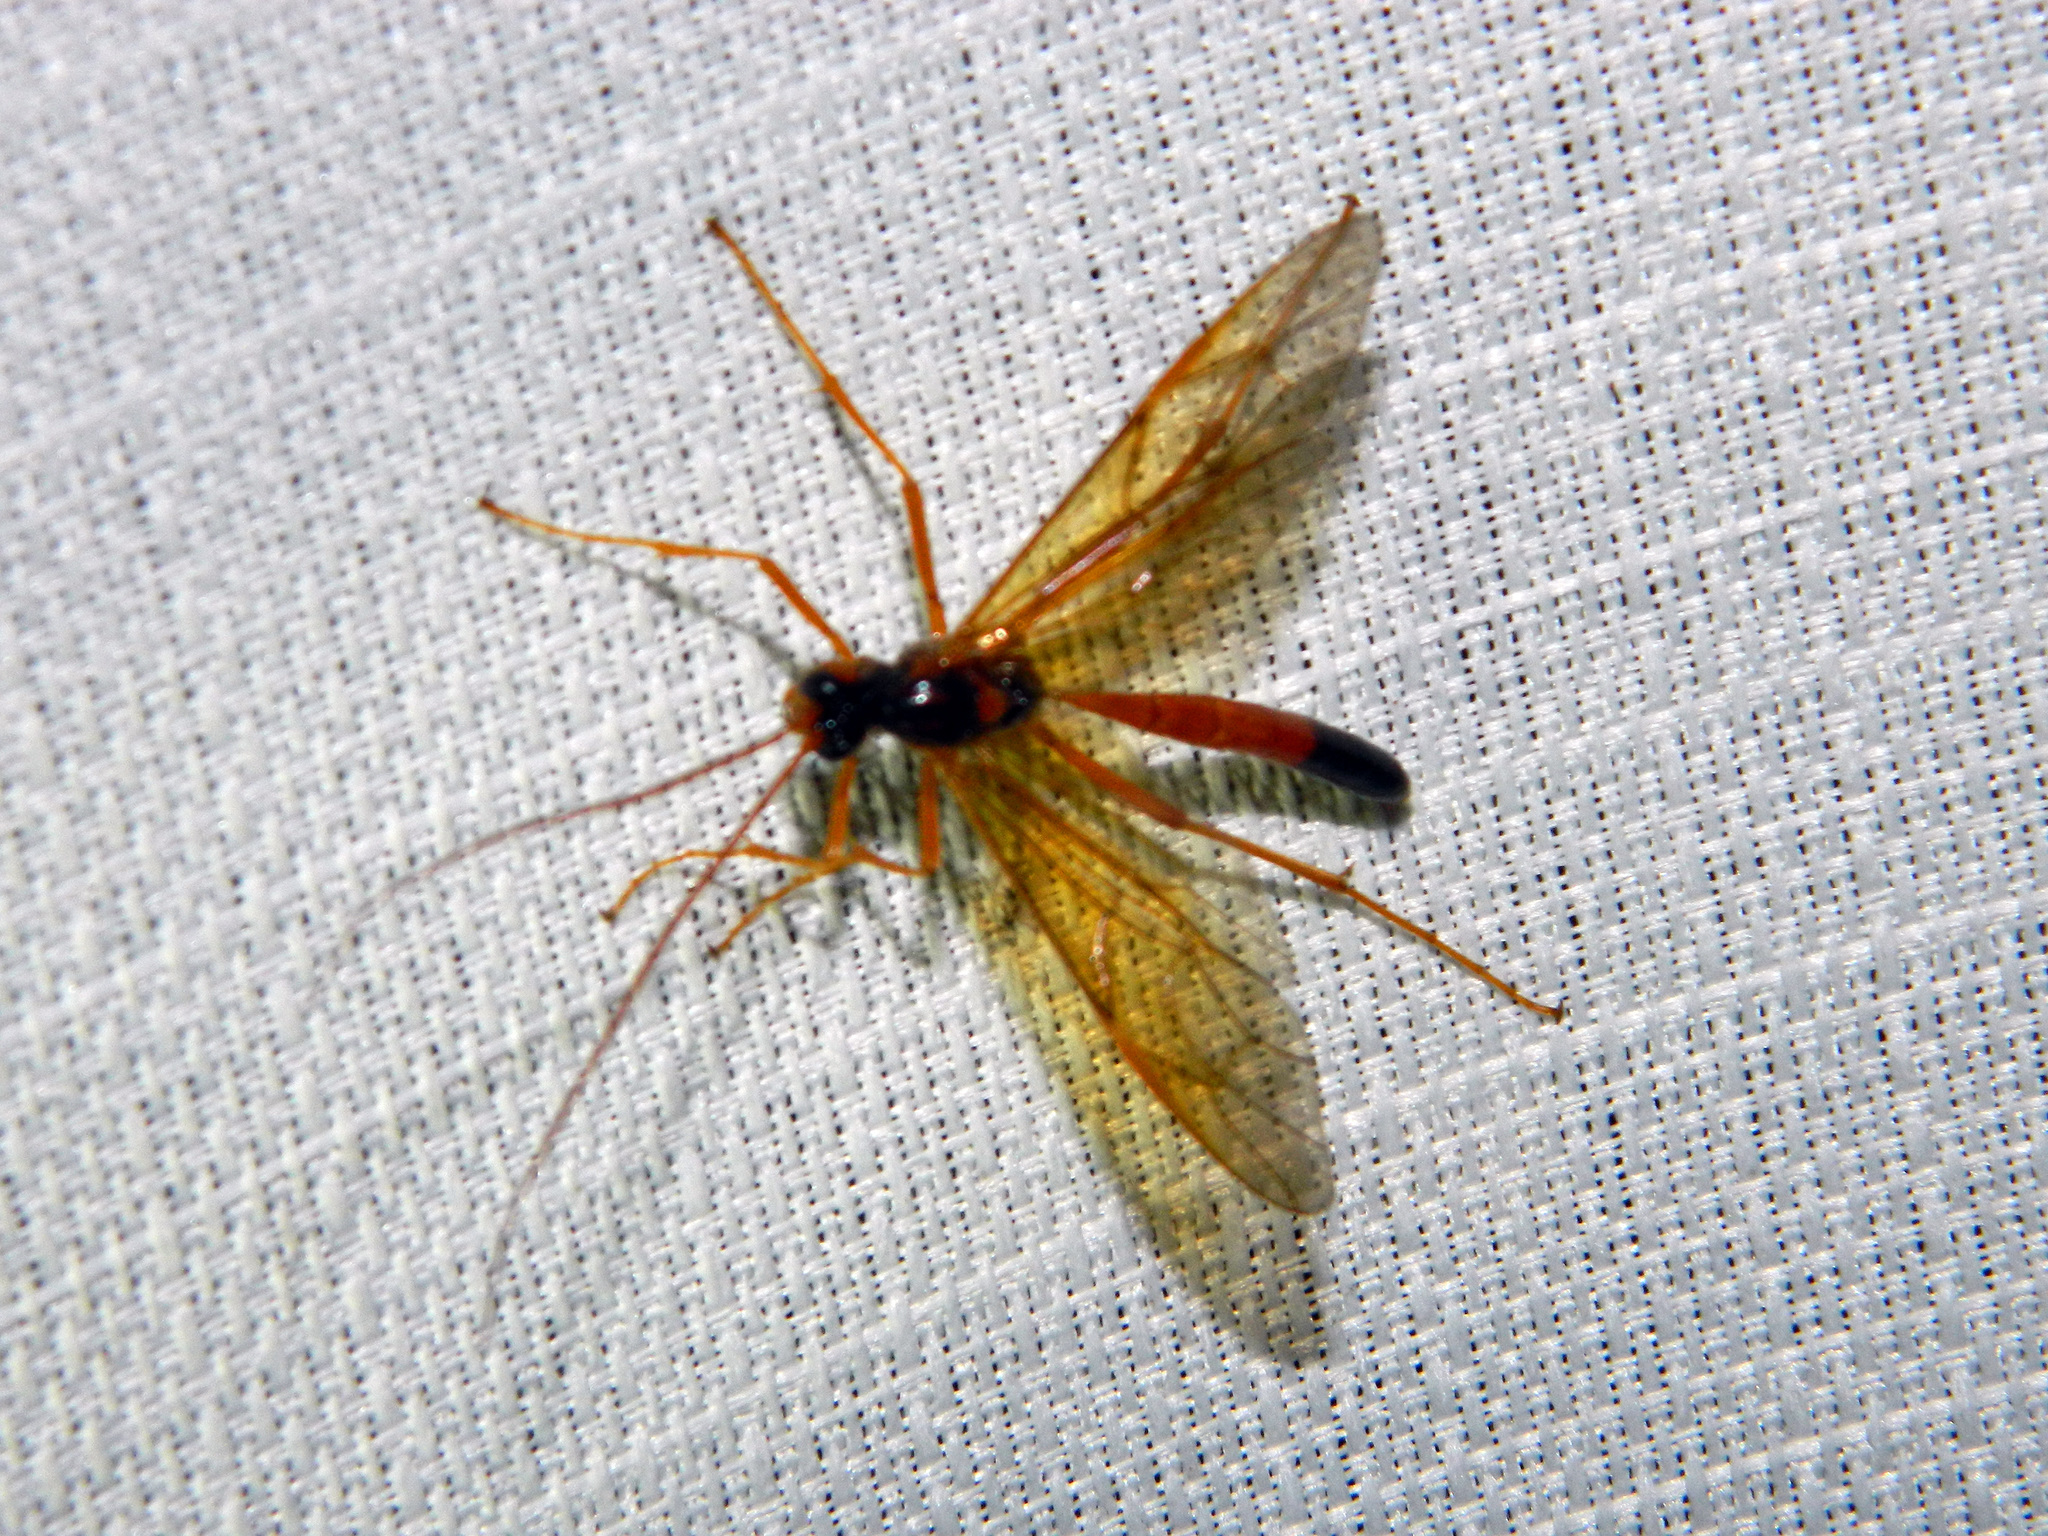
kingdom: Animalia
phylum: Arthropoda
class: Insecta
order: Hymenoptera
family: Ichneumonidae
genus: Opheltes
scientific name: Opheltes glaucopterus
